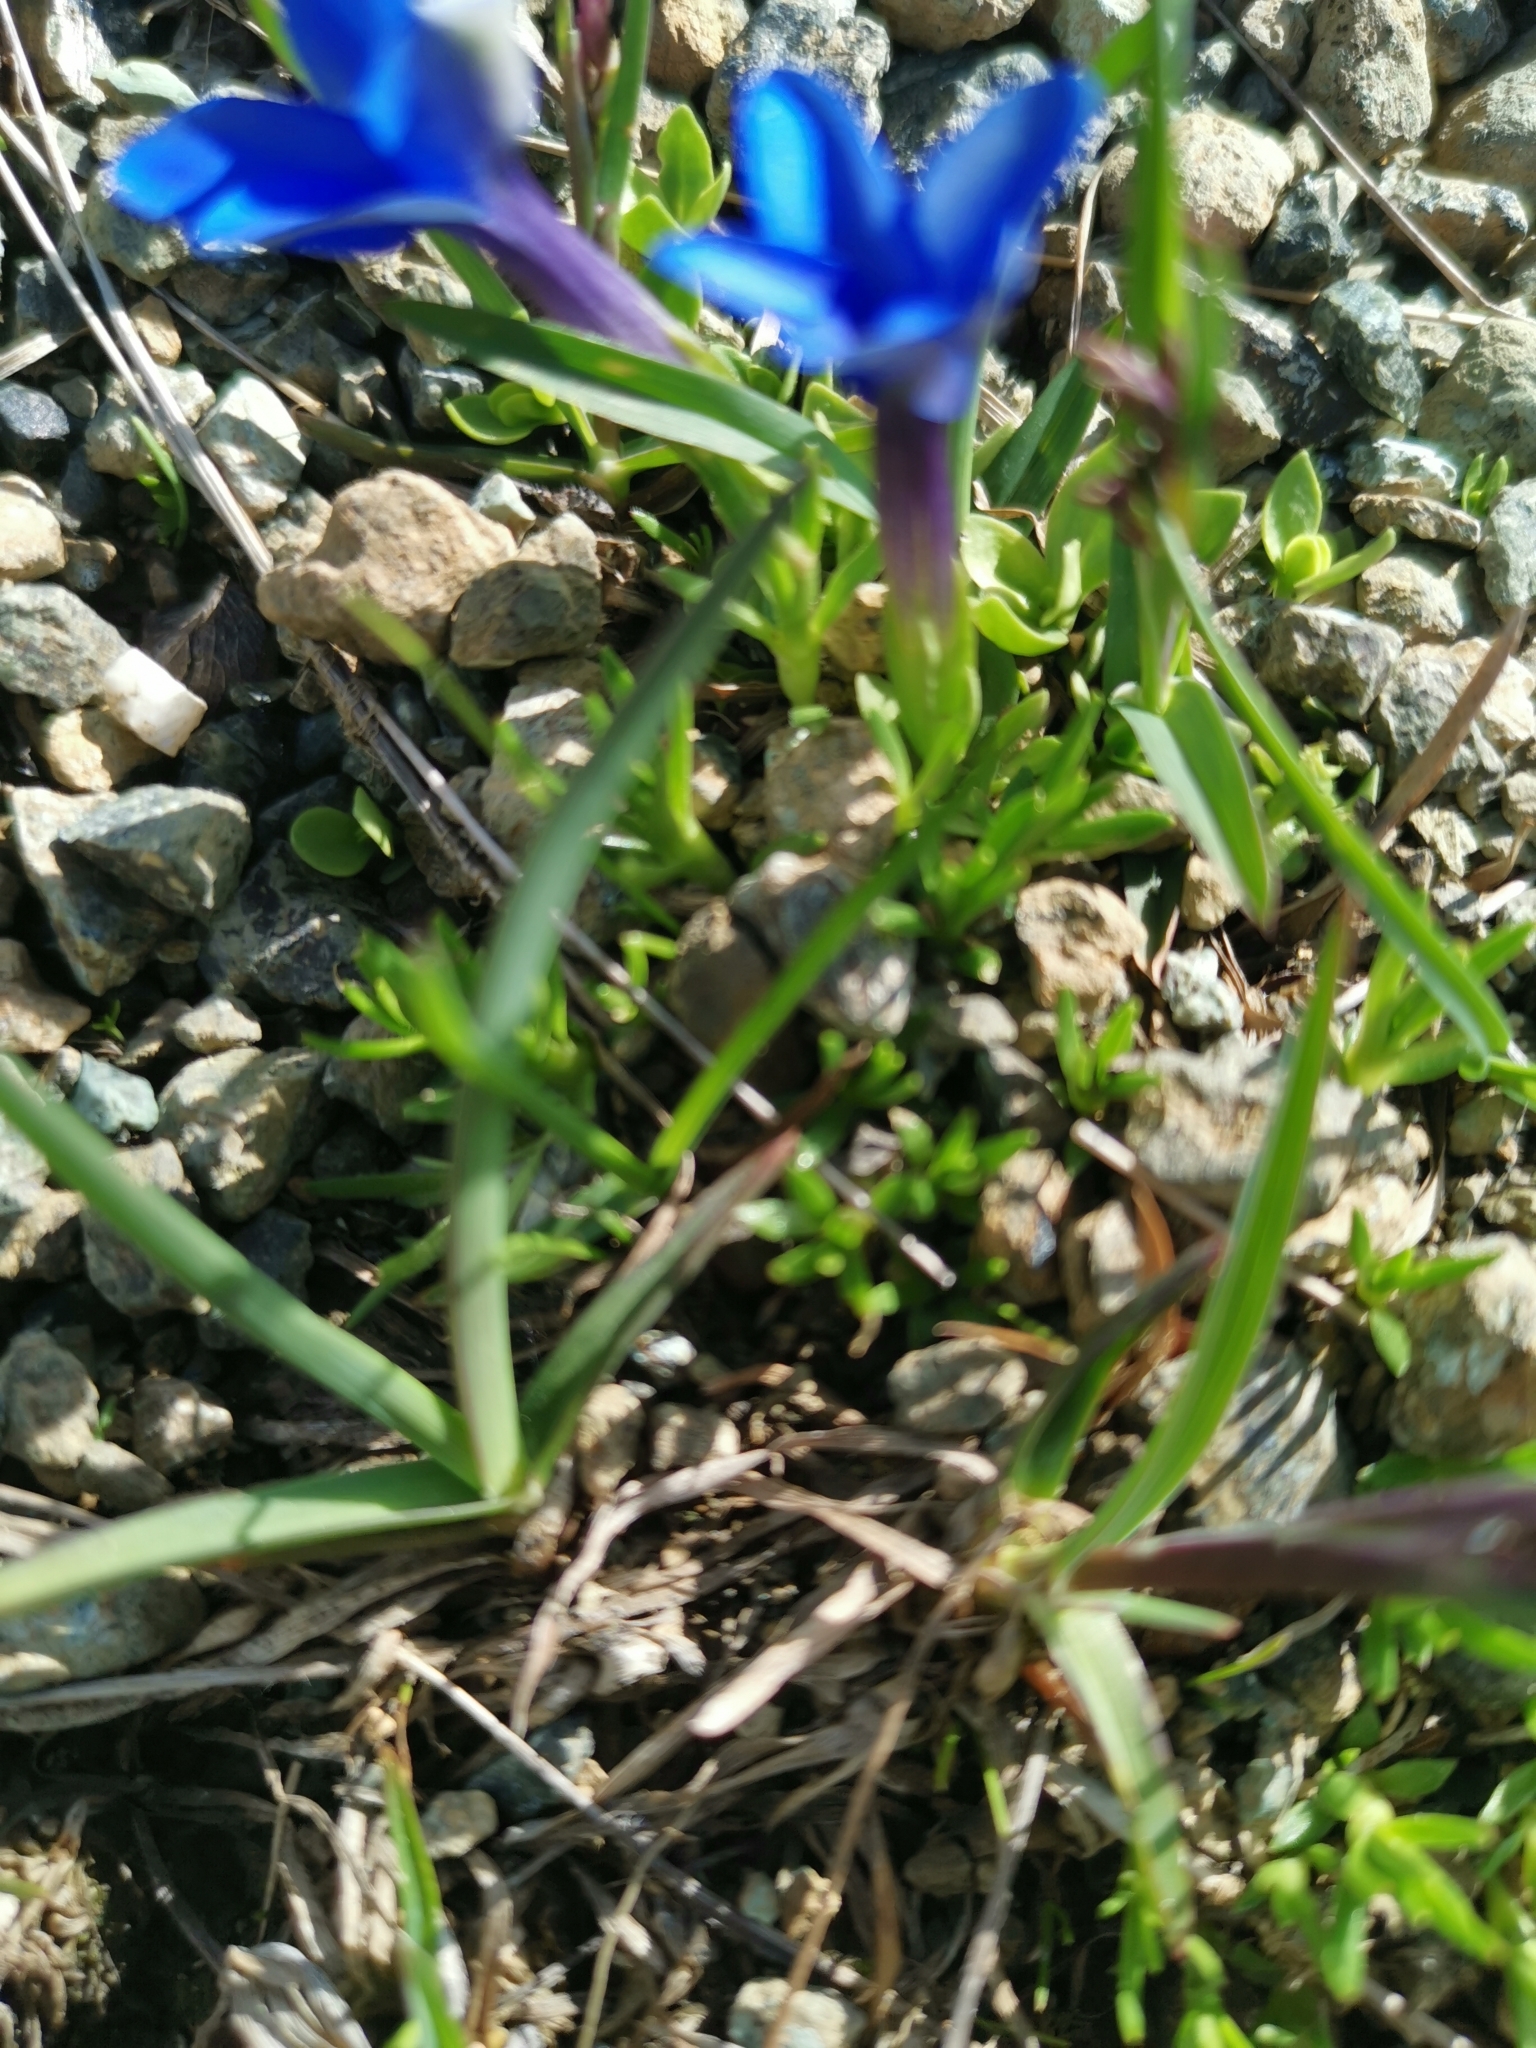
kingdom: Plantae
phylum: Tracheophyta
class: Magnoliopsida
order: Gentianales
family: Gentianaceae
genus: Gentiana
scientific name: Gentiana brachyphylla
